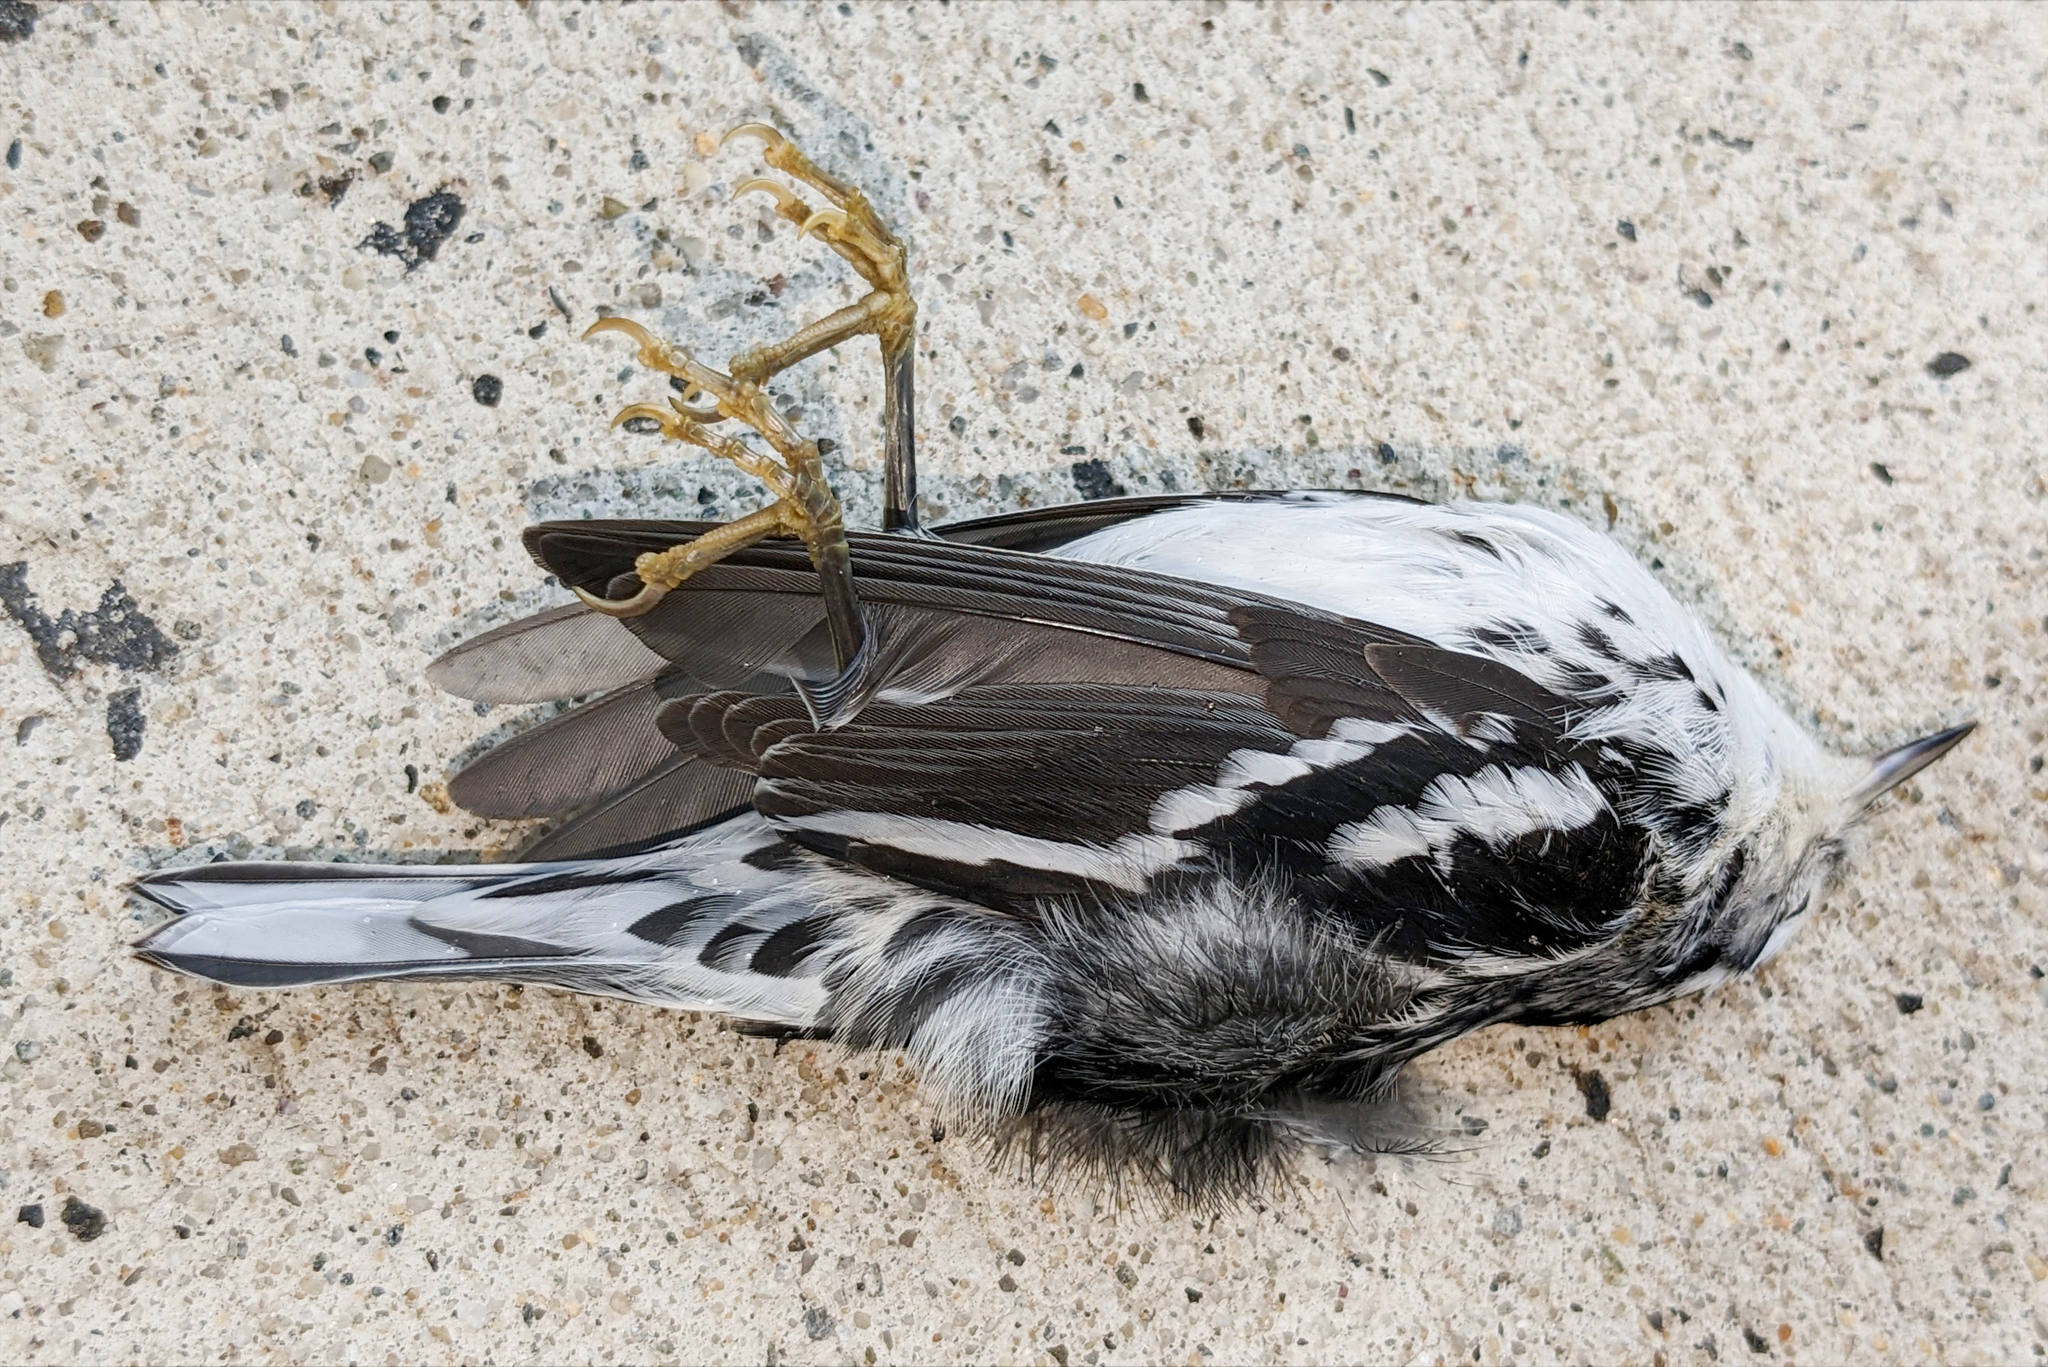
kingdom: Animalia
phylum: Chordata
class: Aves
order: Passeriformes
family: Parulidae
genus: Mniotilta
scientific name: Mniotilta varia
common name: Black-and-white warbler
